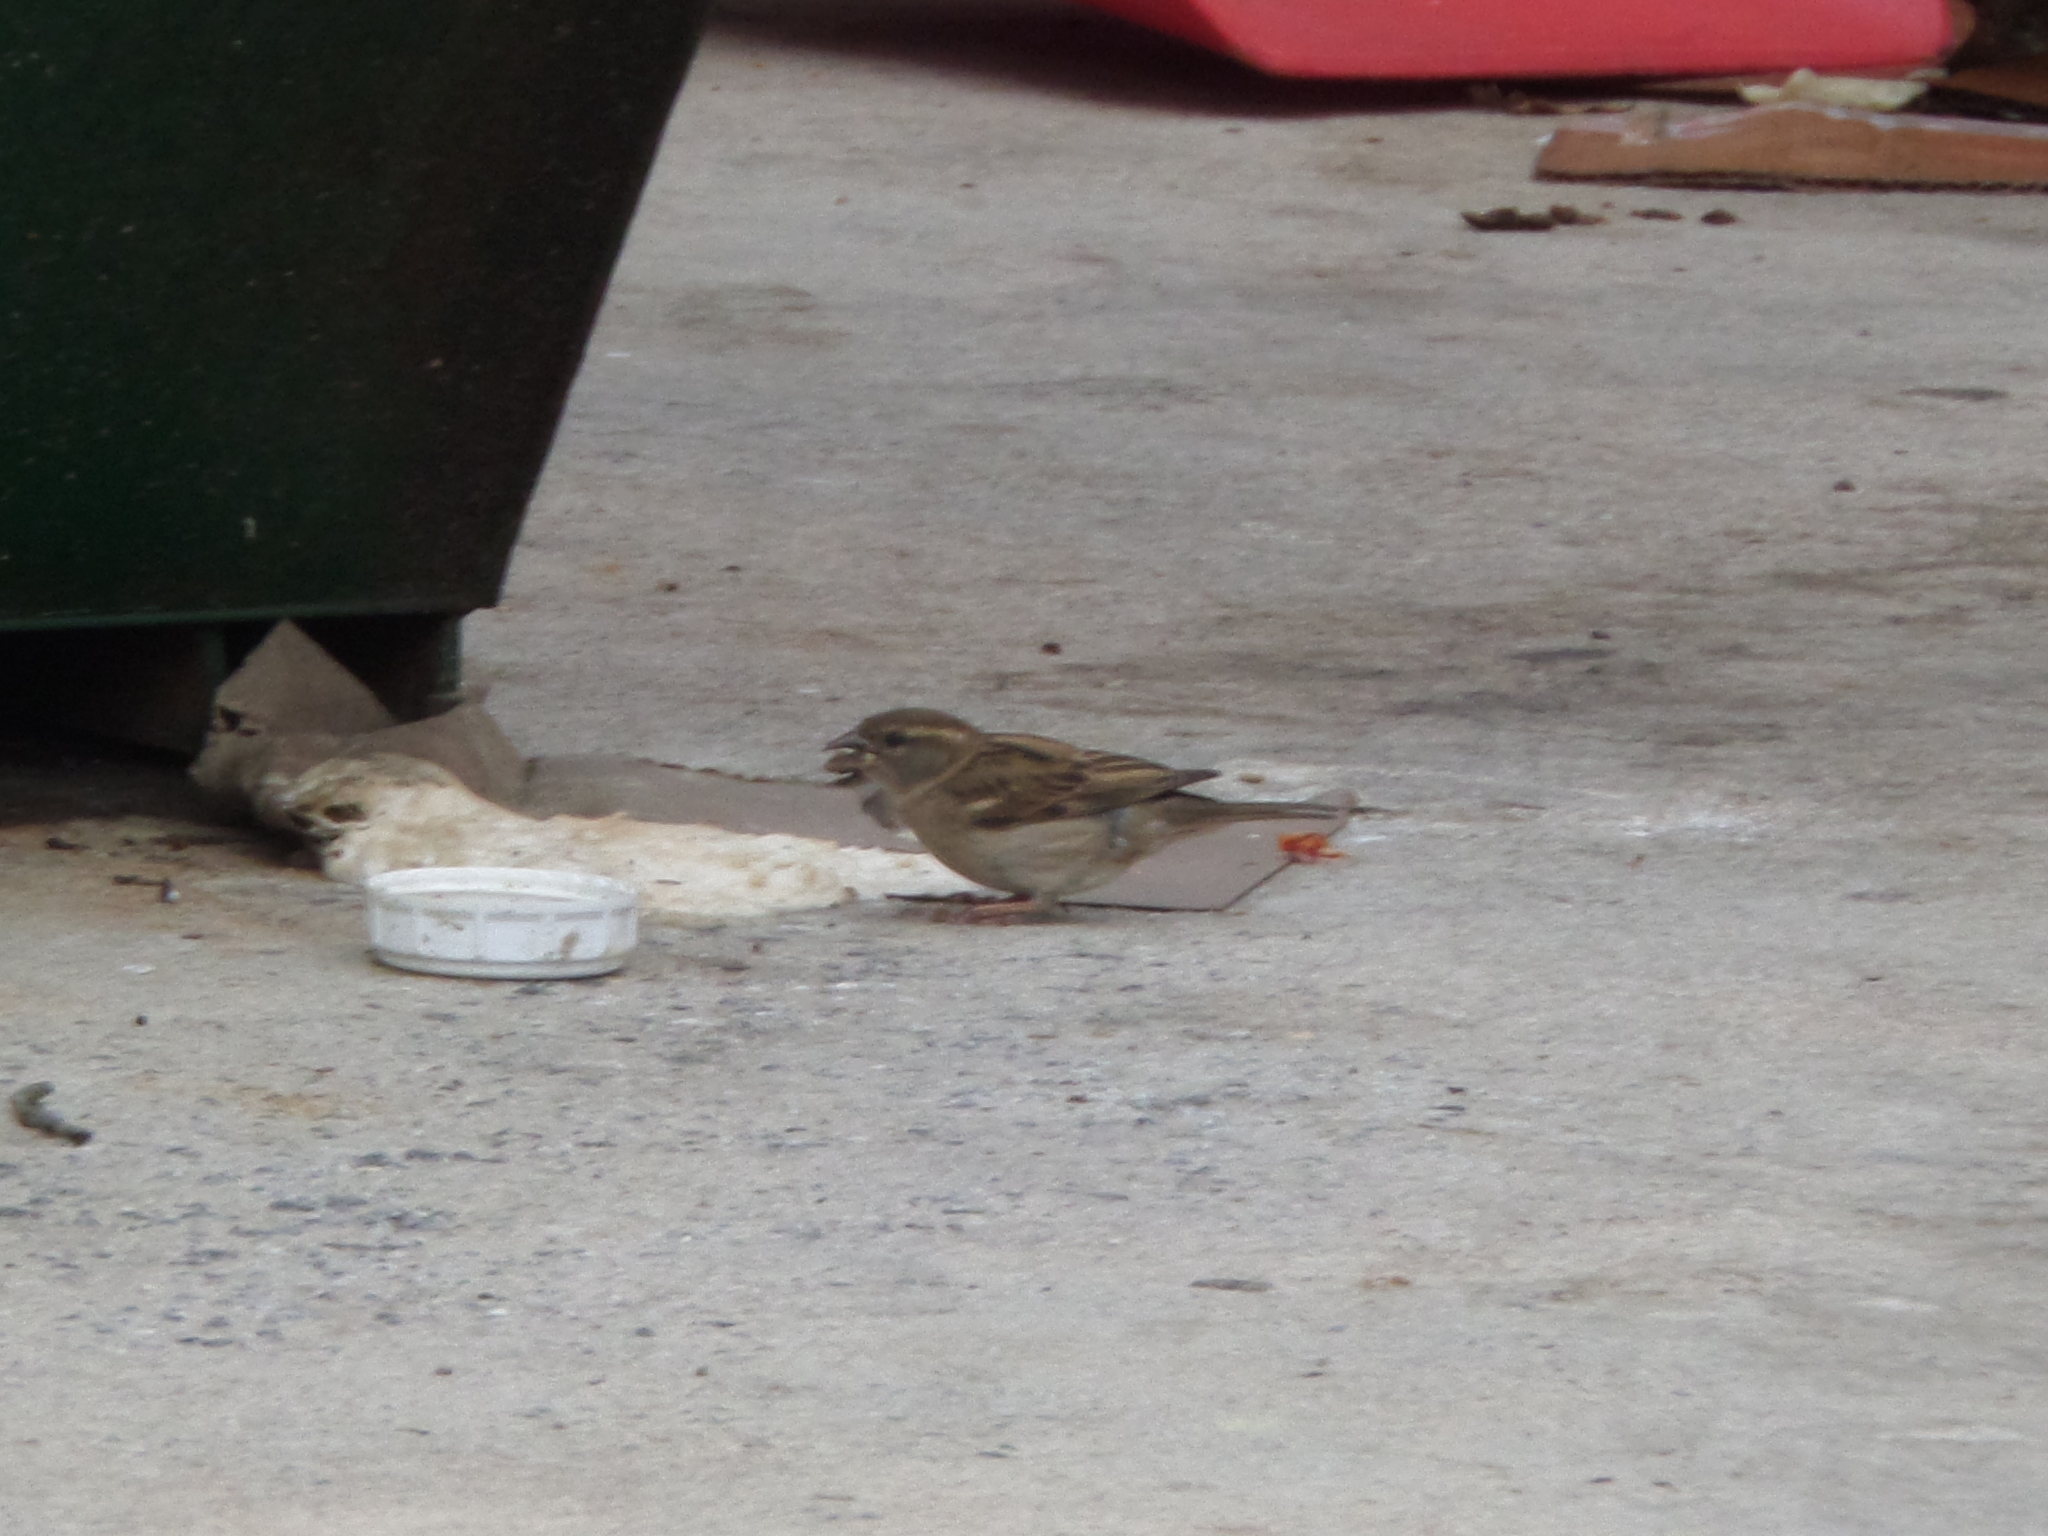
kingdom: Animalia
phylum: Chordata
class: Aves
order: Passeriformes
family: Passeridae
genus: Passer
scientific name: Passer domesticus
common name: House sparrow
